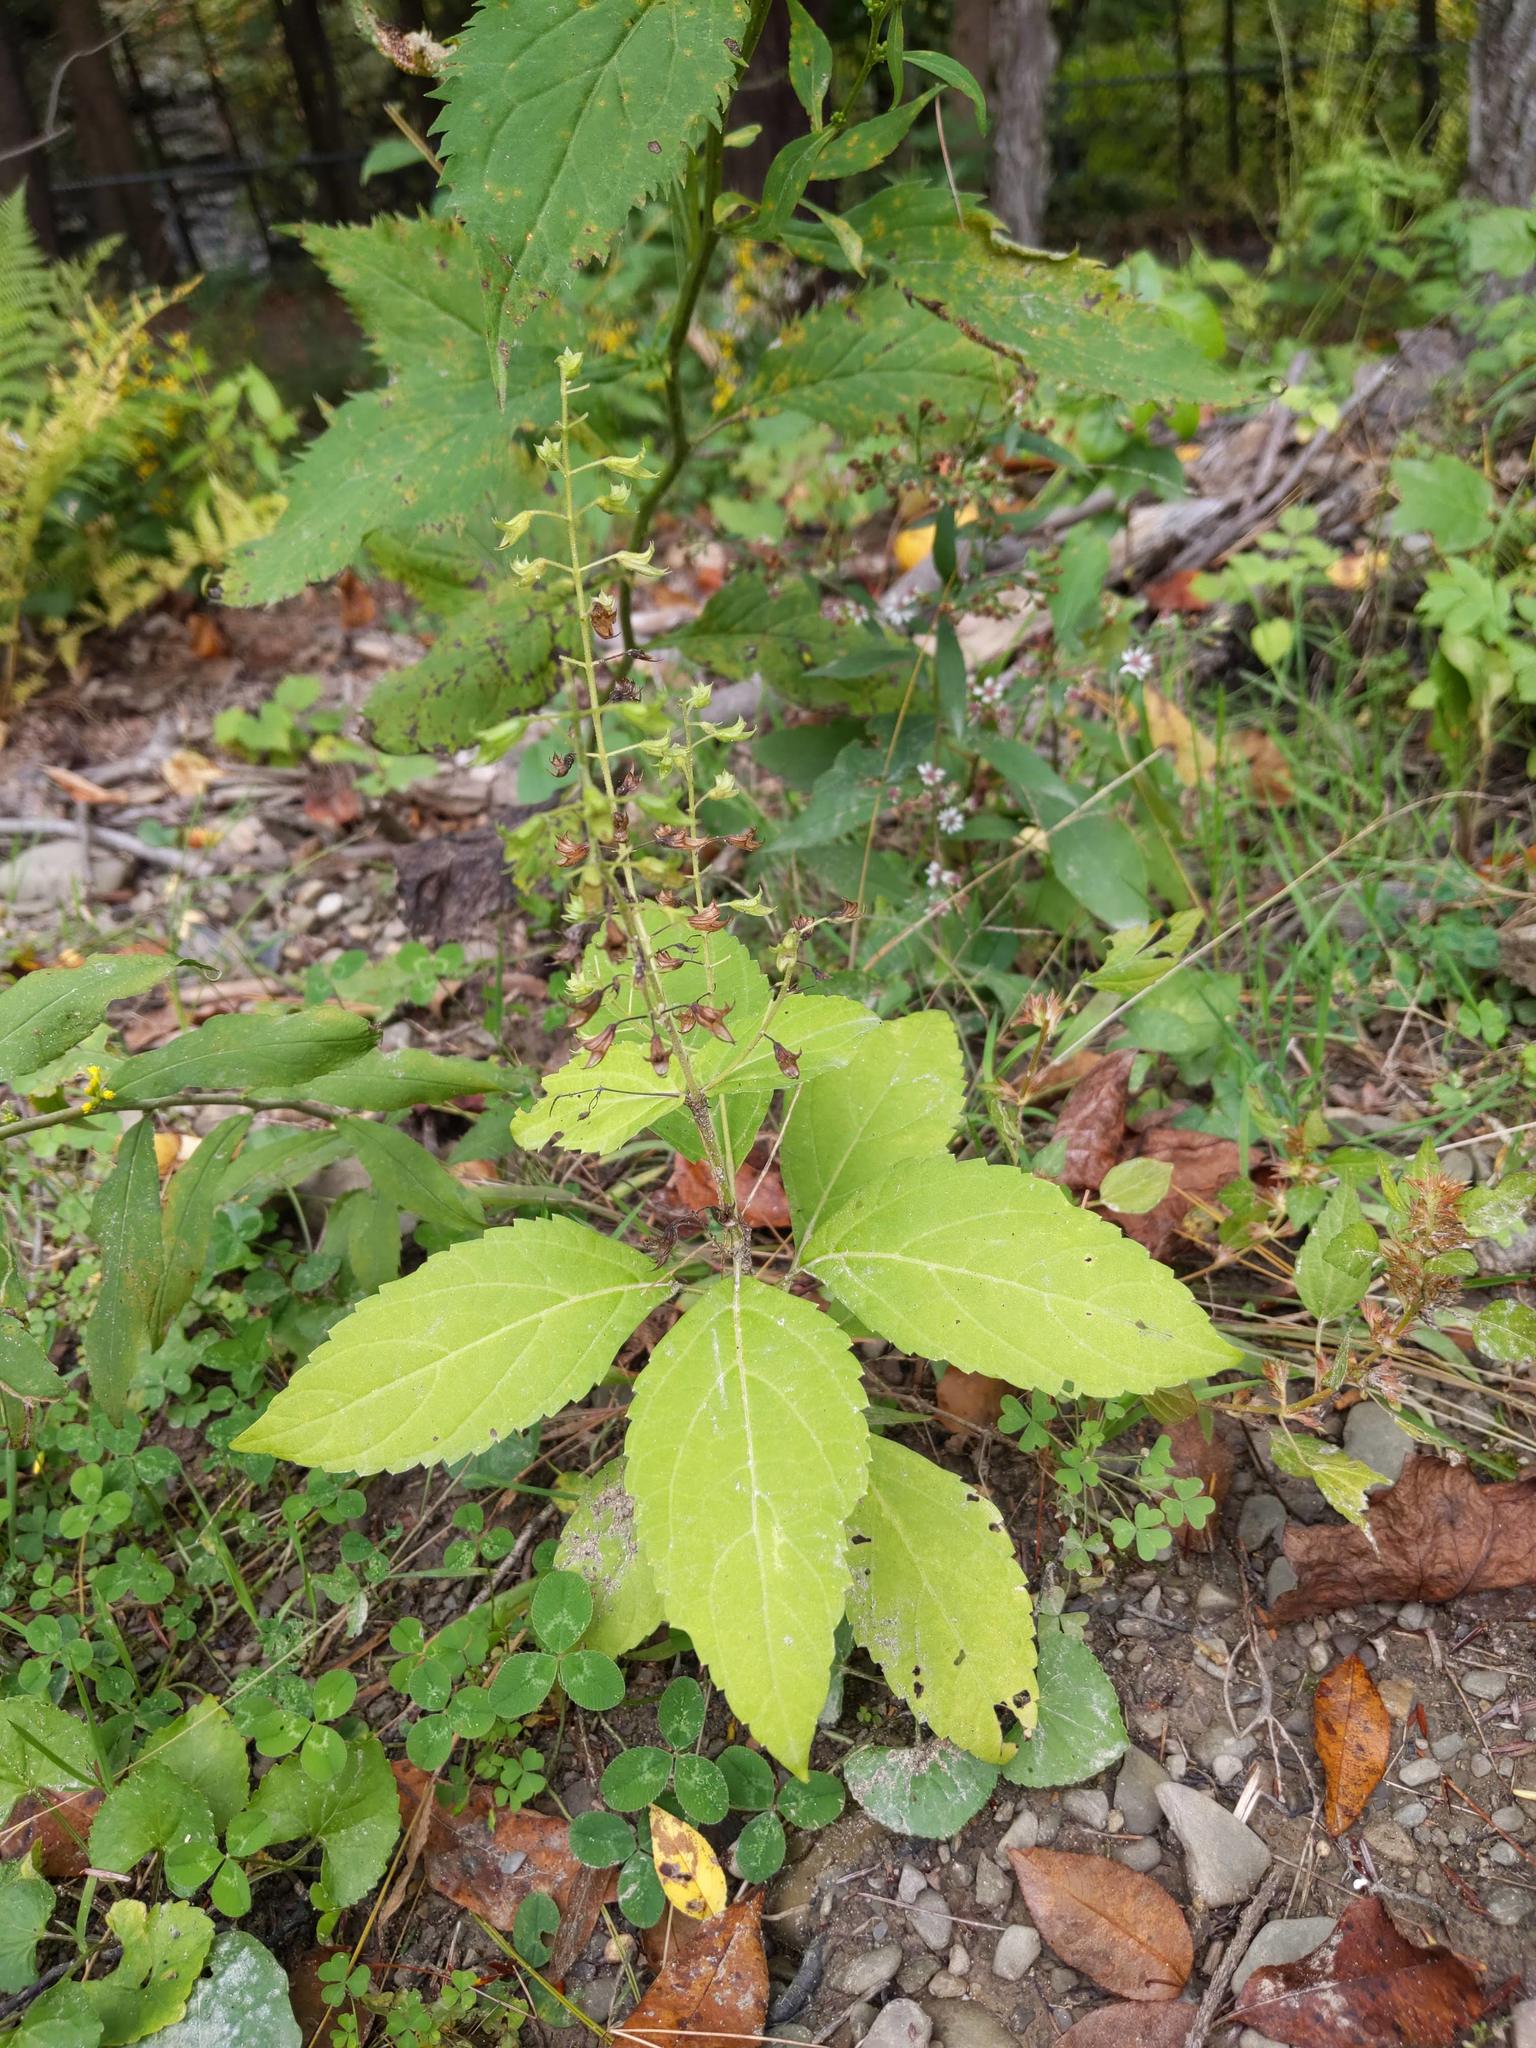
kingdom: Plantae
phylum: Tracheophyta
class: Magnoliopsida
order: Lamiales
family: Lamiaceae
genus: Collinsonia
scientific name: Collinsonia canadensis
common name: Northern horsebalm
